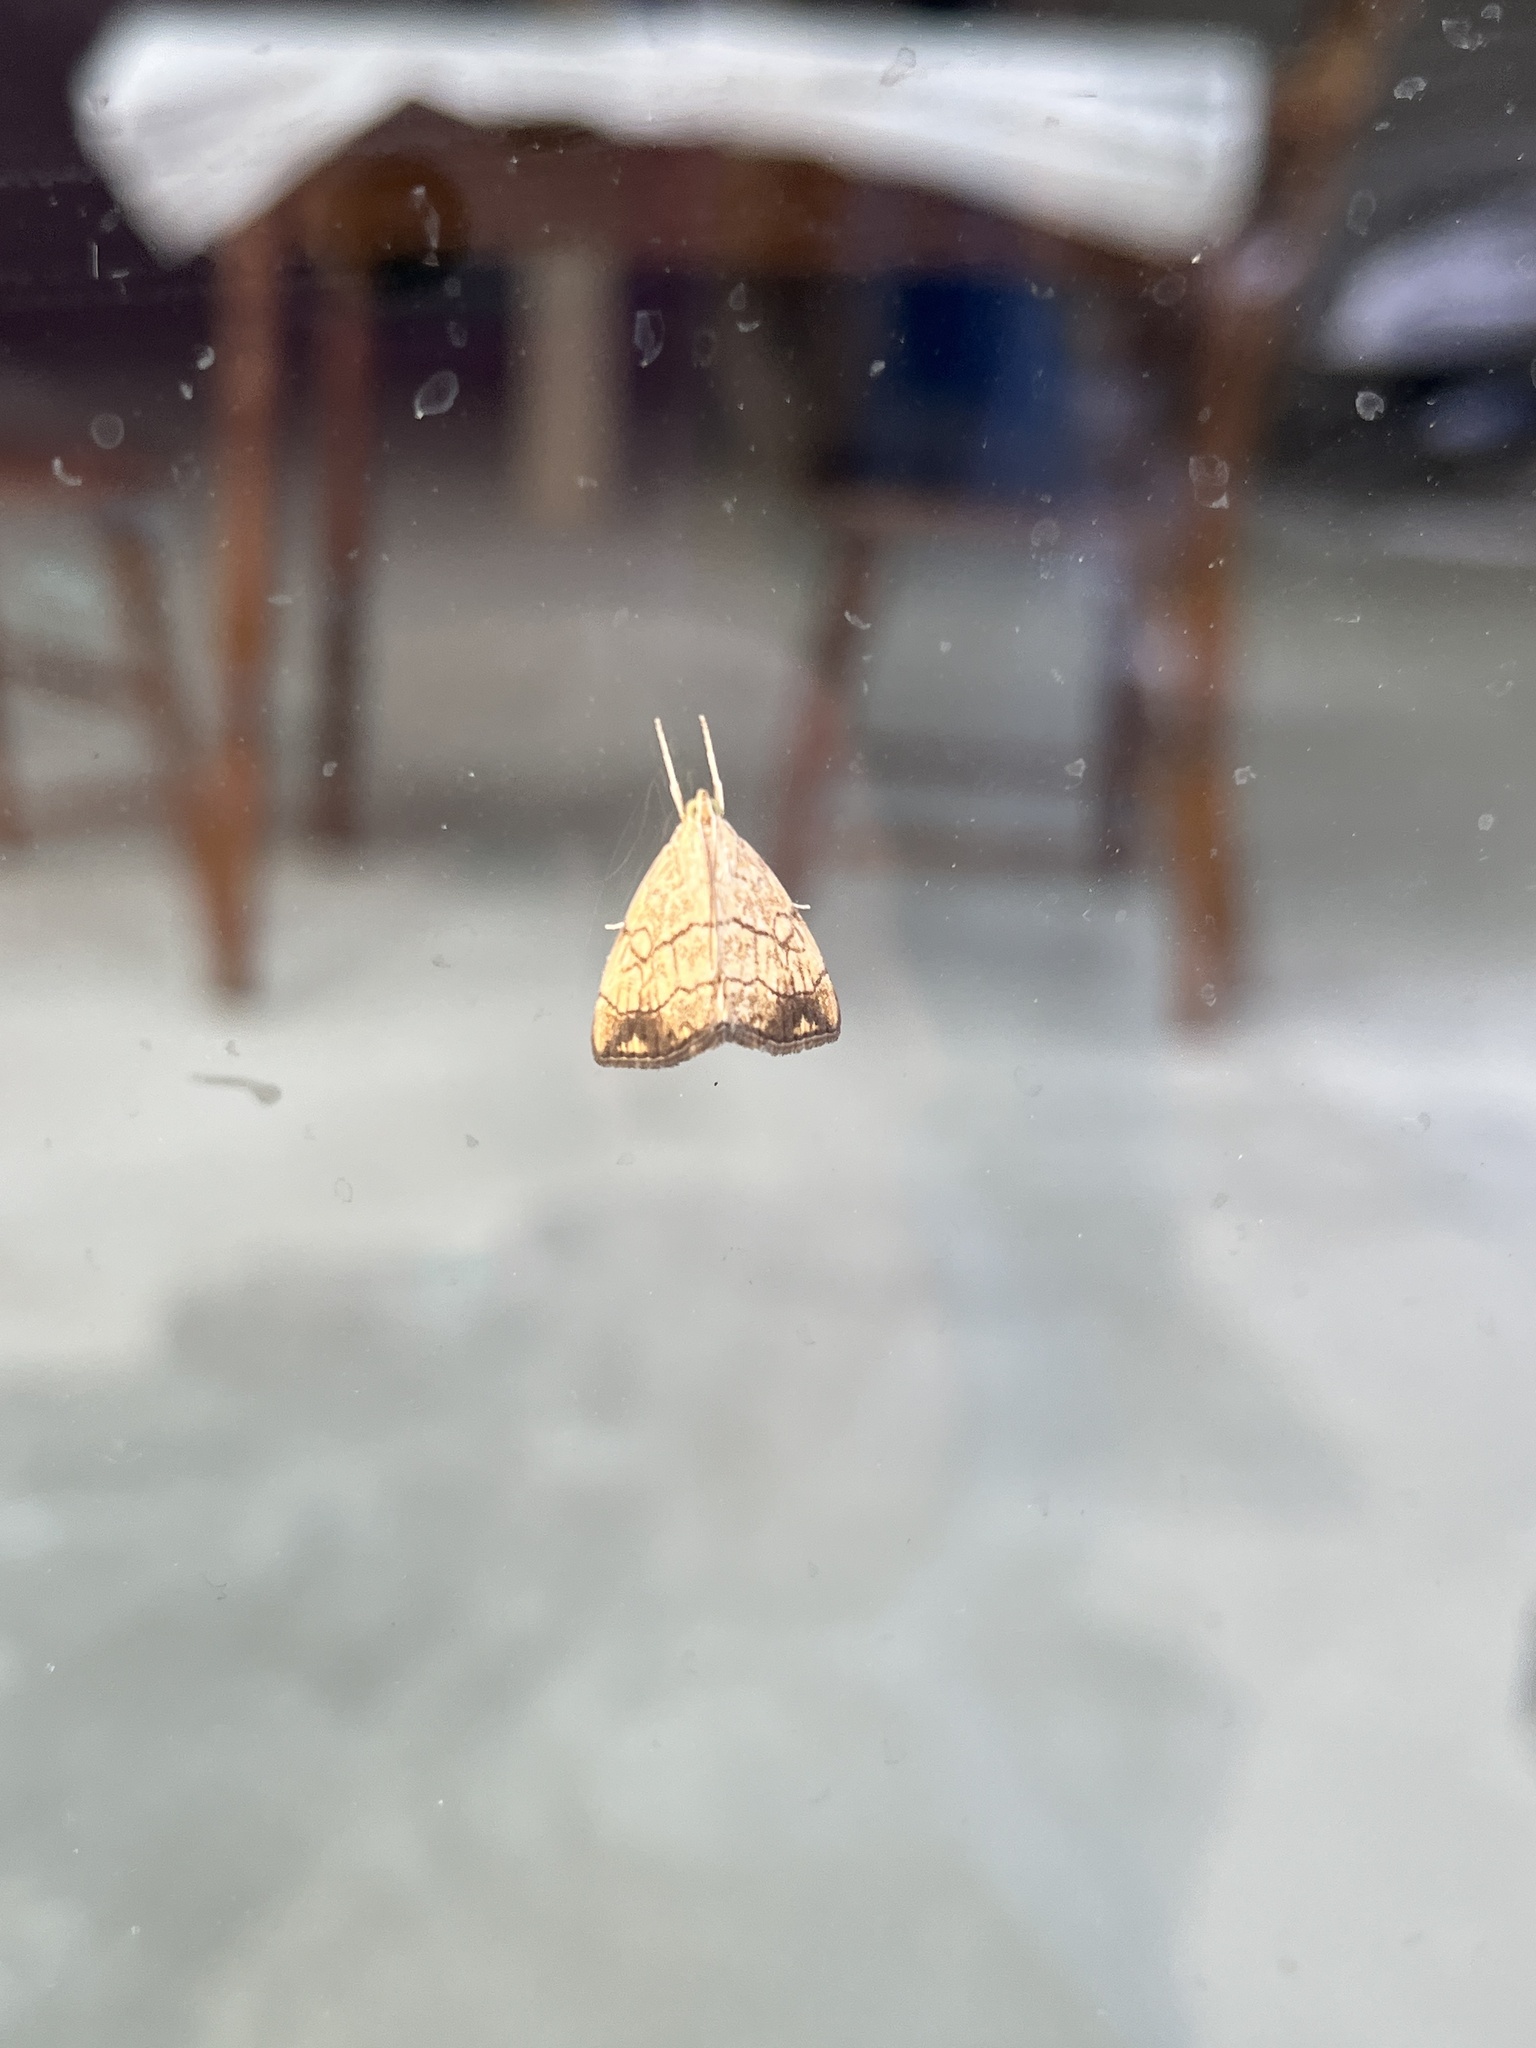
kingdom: Animalia
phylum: Arthropoda
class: Insecta
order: Lepidoptera
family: Crambidae
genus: Evergestis
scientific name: Evergestis pallidata
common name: Chequered pearl
